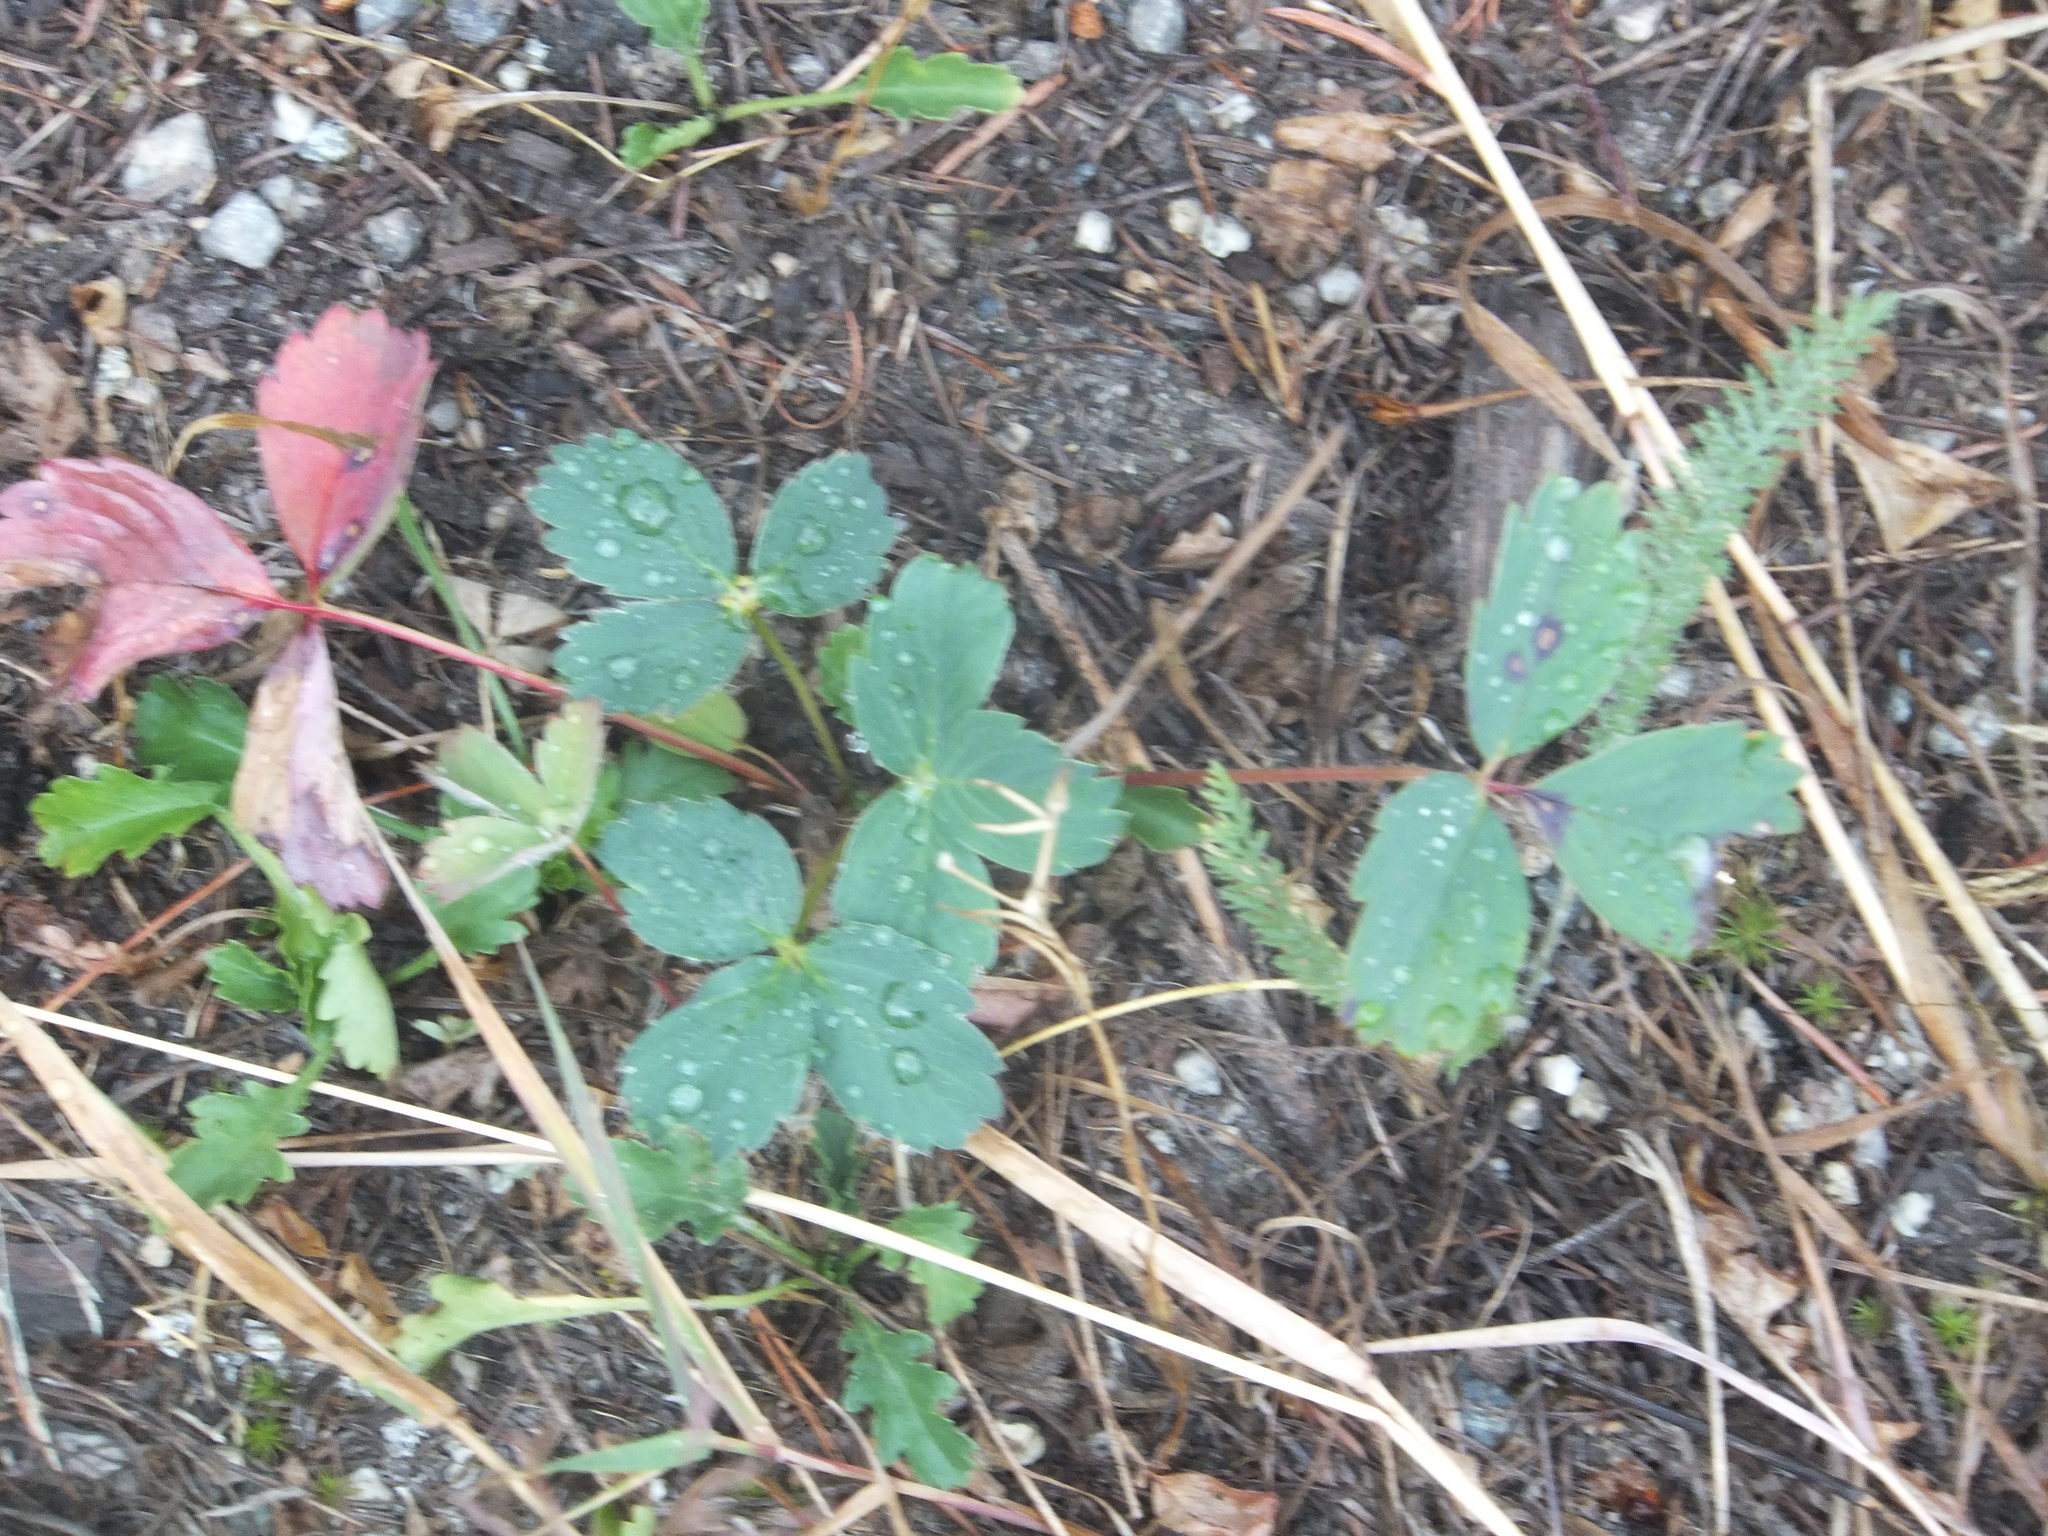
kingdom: Plantae
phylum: Tracheophyta
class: Magnoliopsida
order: Rosales
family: Rosaceae
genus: Fragaria
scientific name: Fragaria virginiana
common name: Thickleaved wild strawberry
